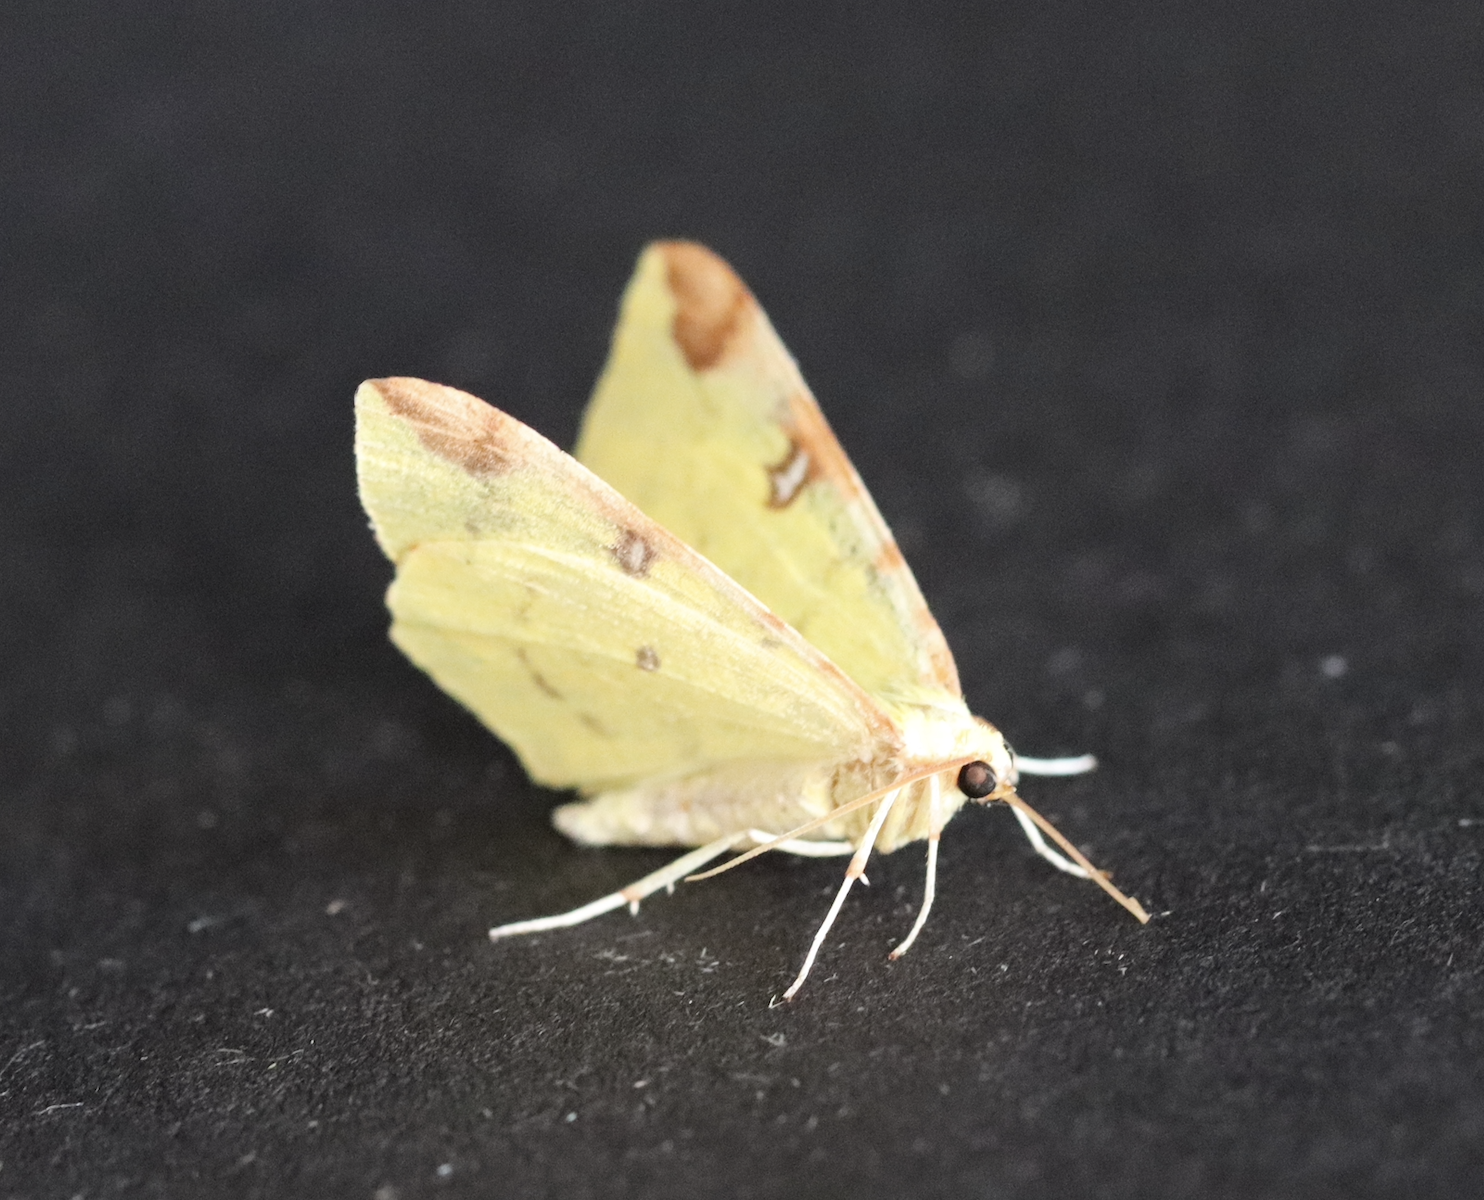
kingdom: Animalia
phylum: Arthropoda
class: Insecta
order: Lepidoptera
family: Geometridae
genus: Opisthograptis
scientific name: Opisthograptis luteolata
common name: Brimstone moth
